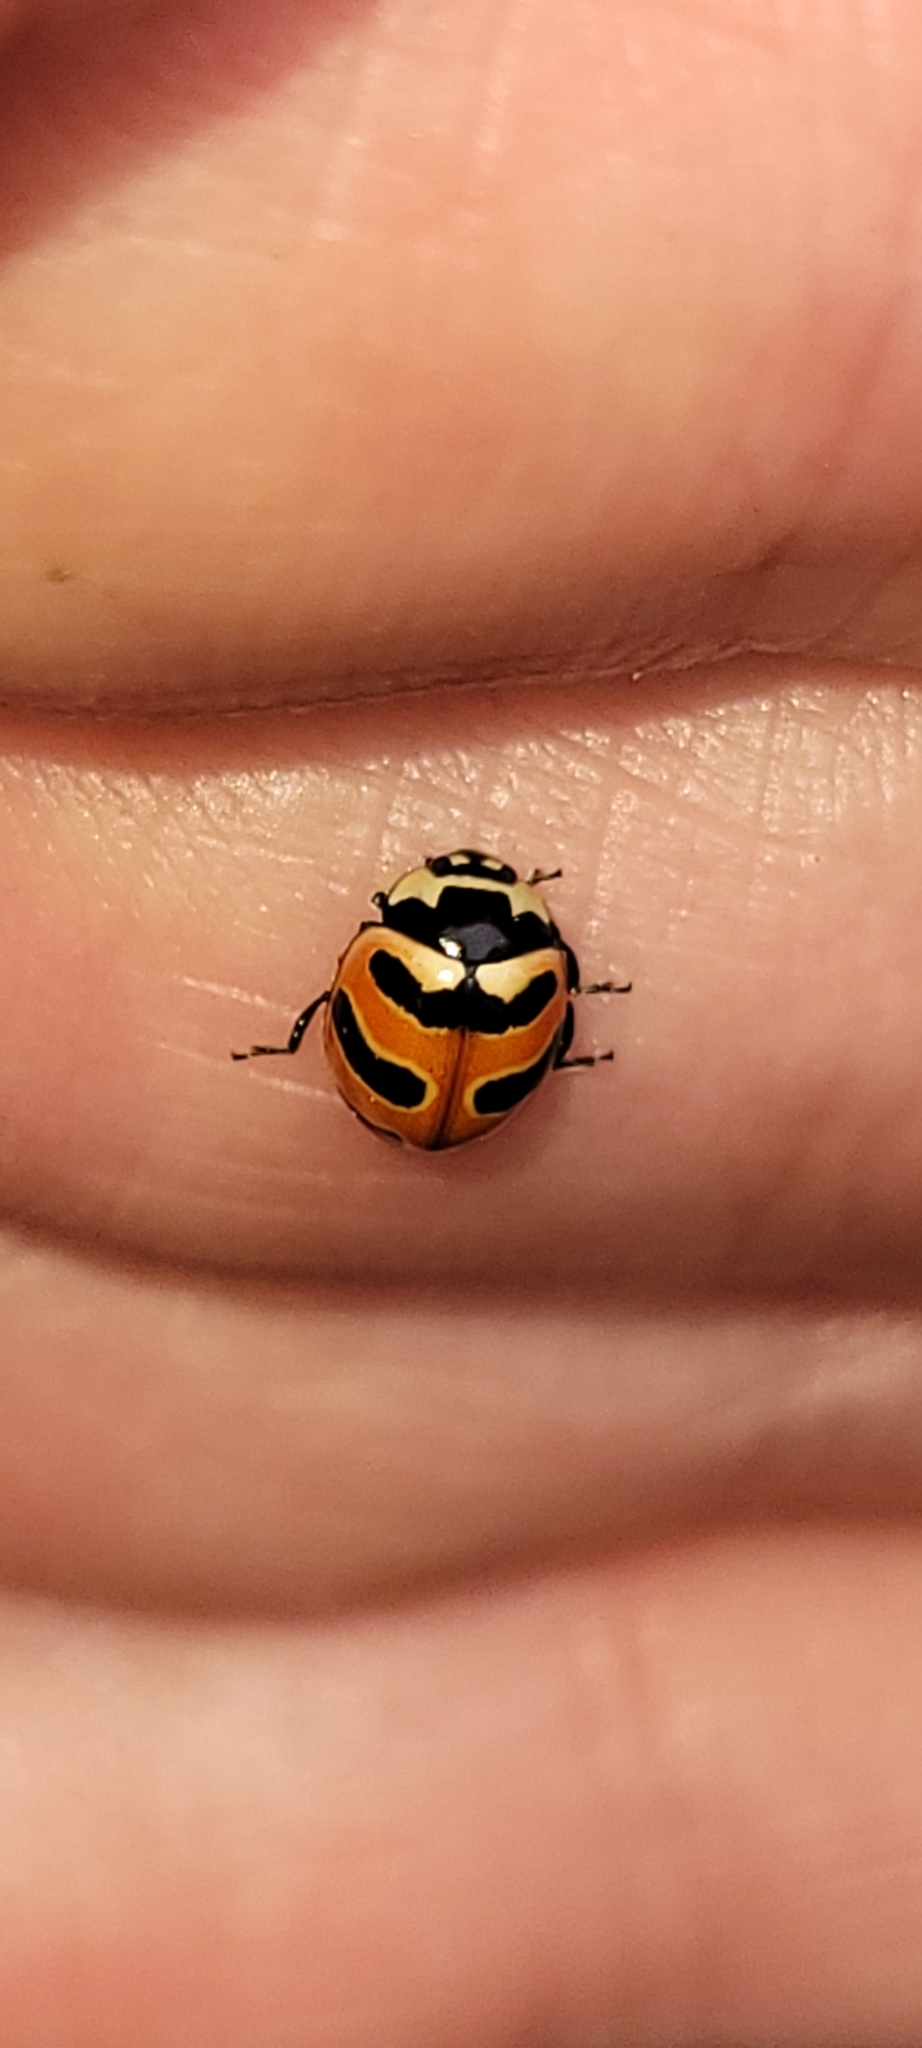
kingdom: Animalia
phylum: Arthropoda
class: Insecta
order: Coleoptera
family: Coccinellidae
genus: Coccinella
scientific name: Coccinella trifasciata
